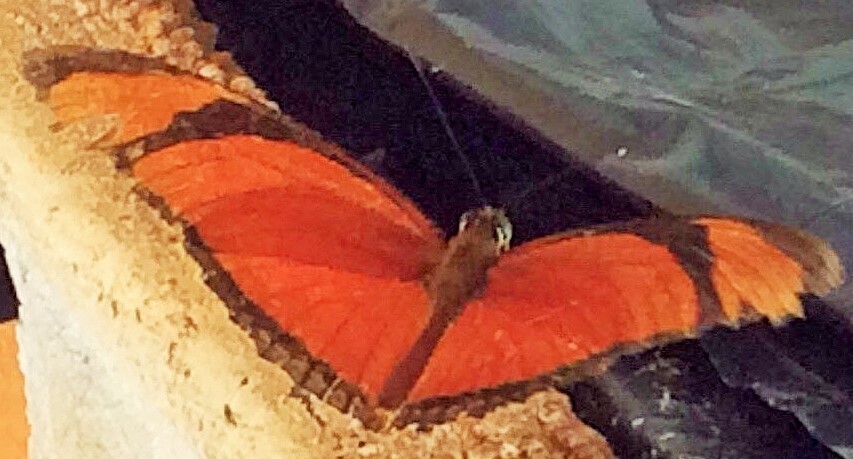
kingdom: Animalia
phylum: Arthropoda
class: Insecta
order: Lepidoptera
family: Nymphalidae
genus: Dryas
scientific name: Dryas iulia
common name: Flambeau
